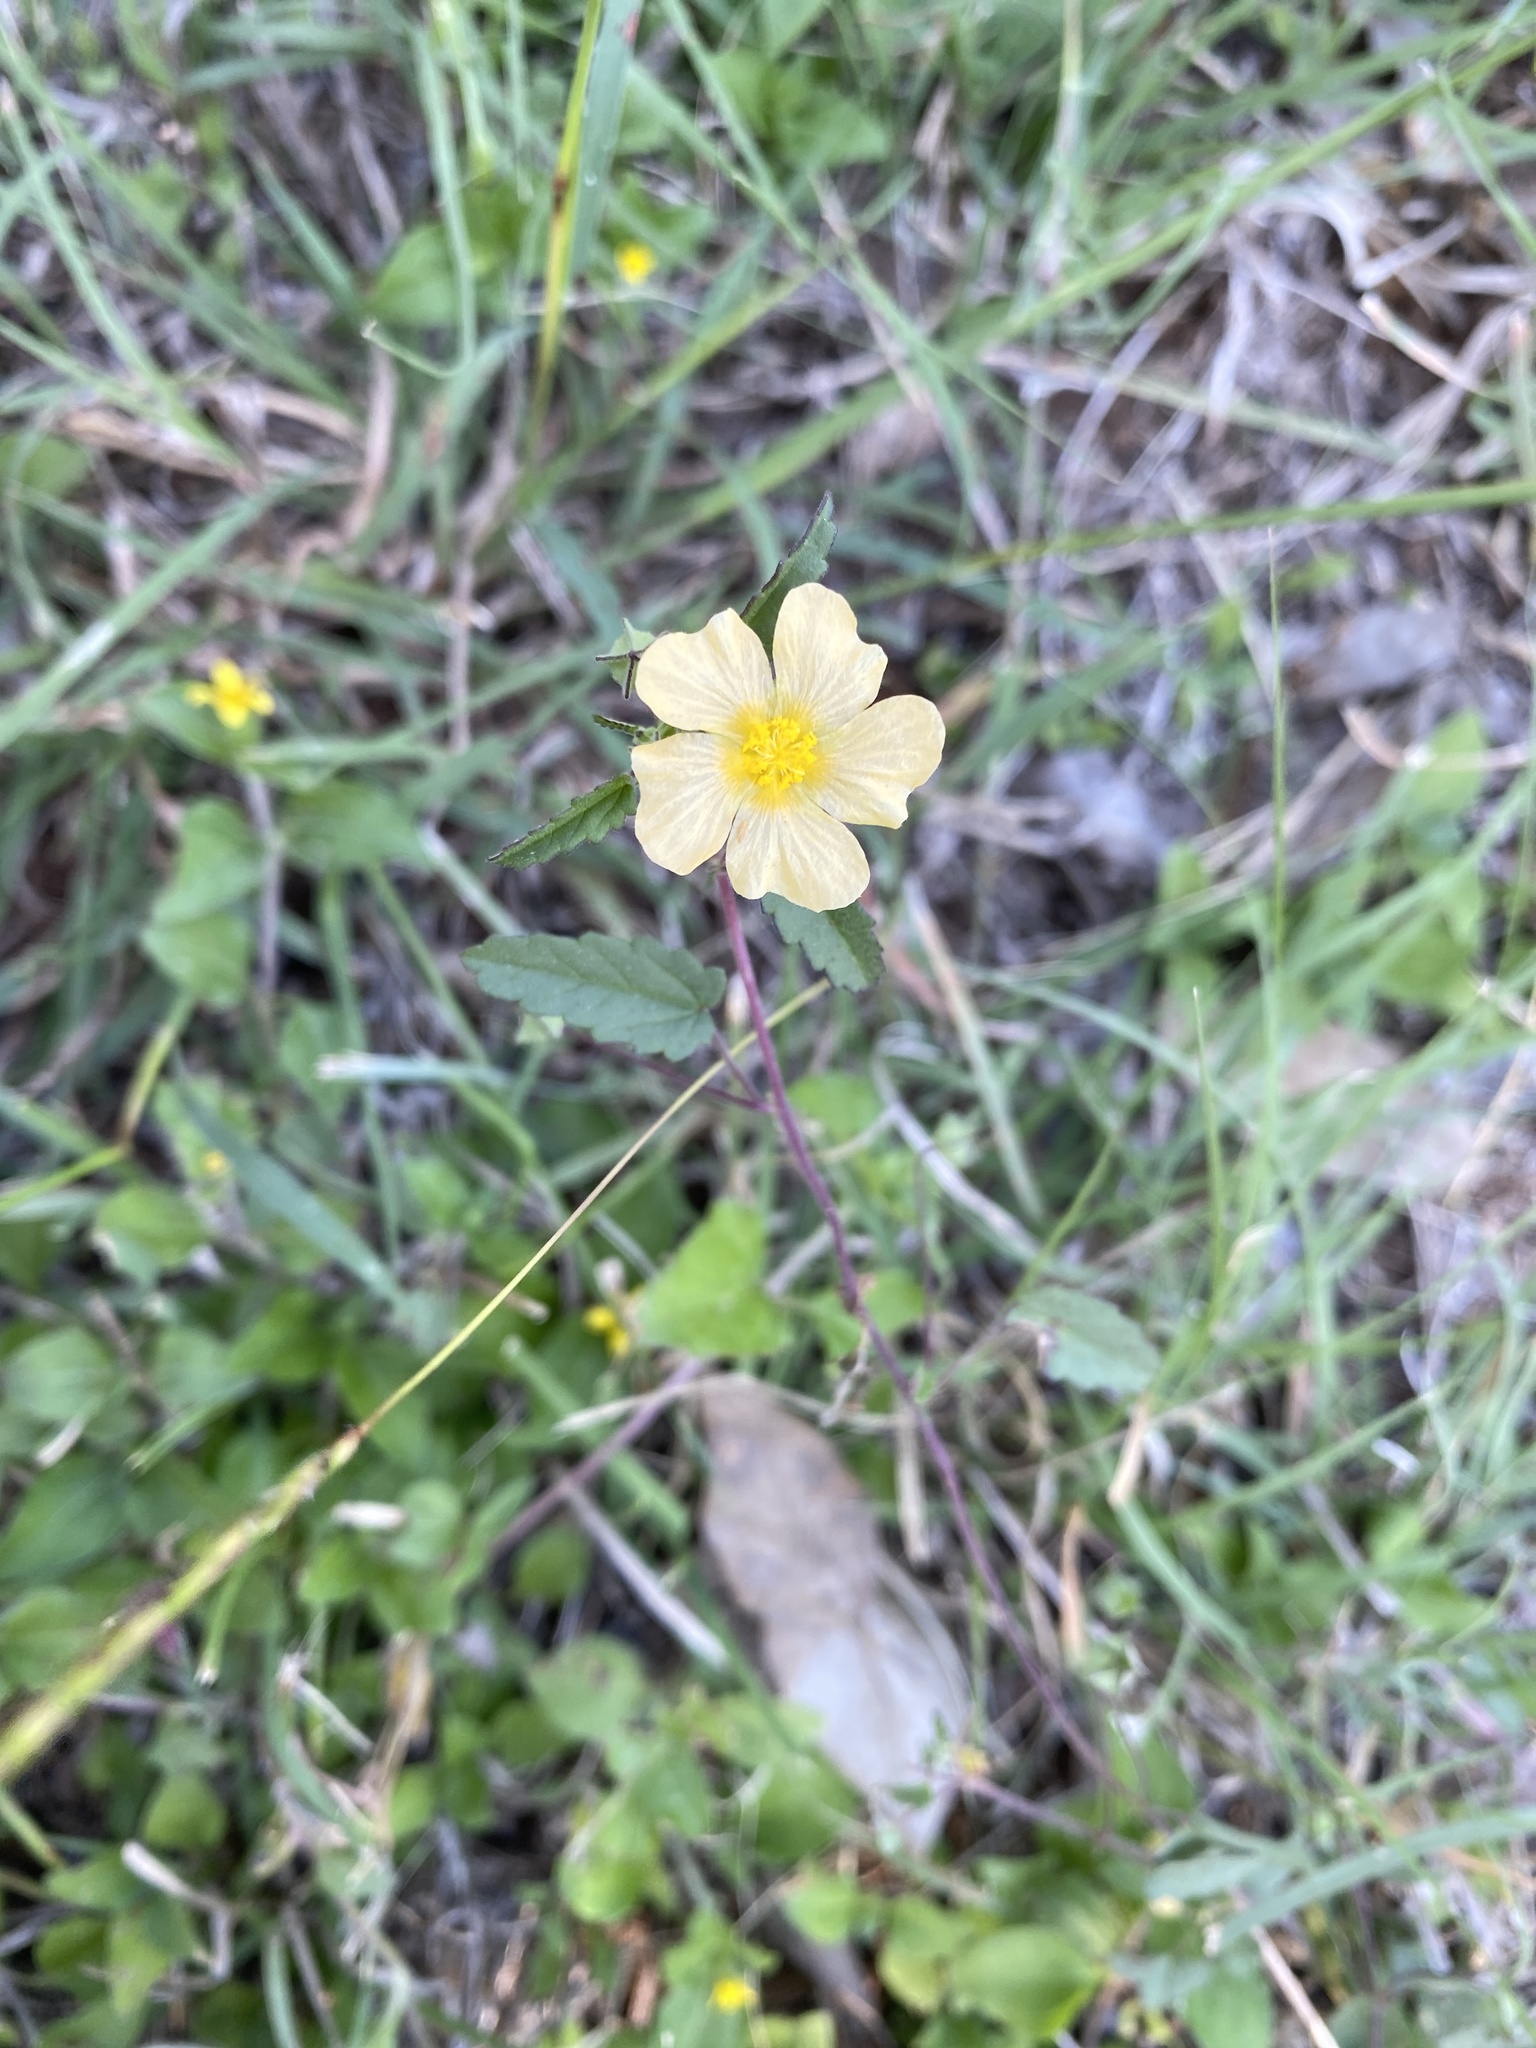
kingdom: Plantae
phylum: Tracheophyta
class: Magnoliopsida
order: Malvales
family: Malvaceae
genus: Sida
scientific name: Sida abutilifolia
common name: Spreading fanpetals
